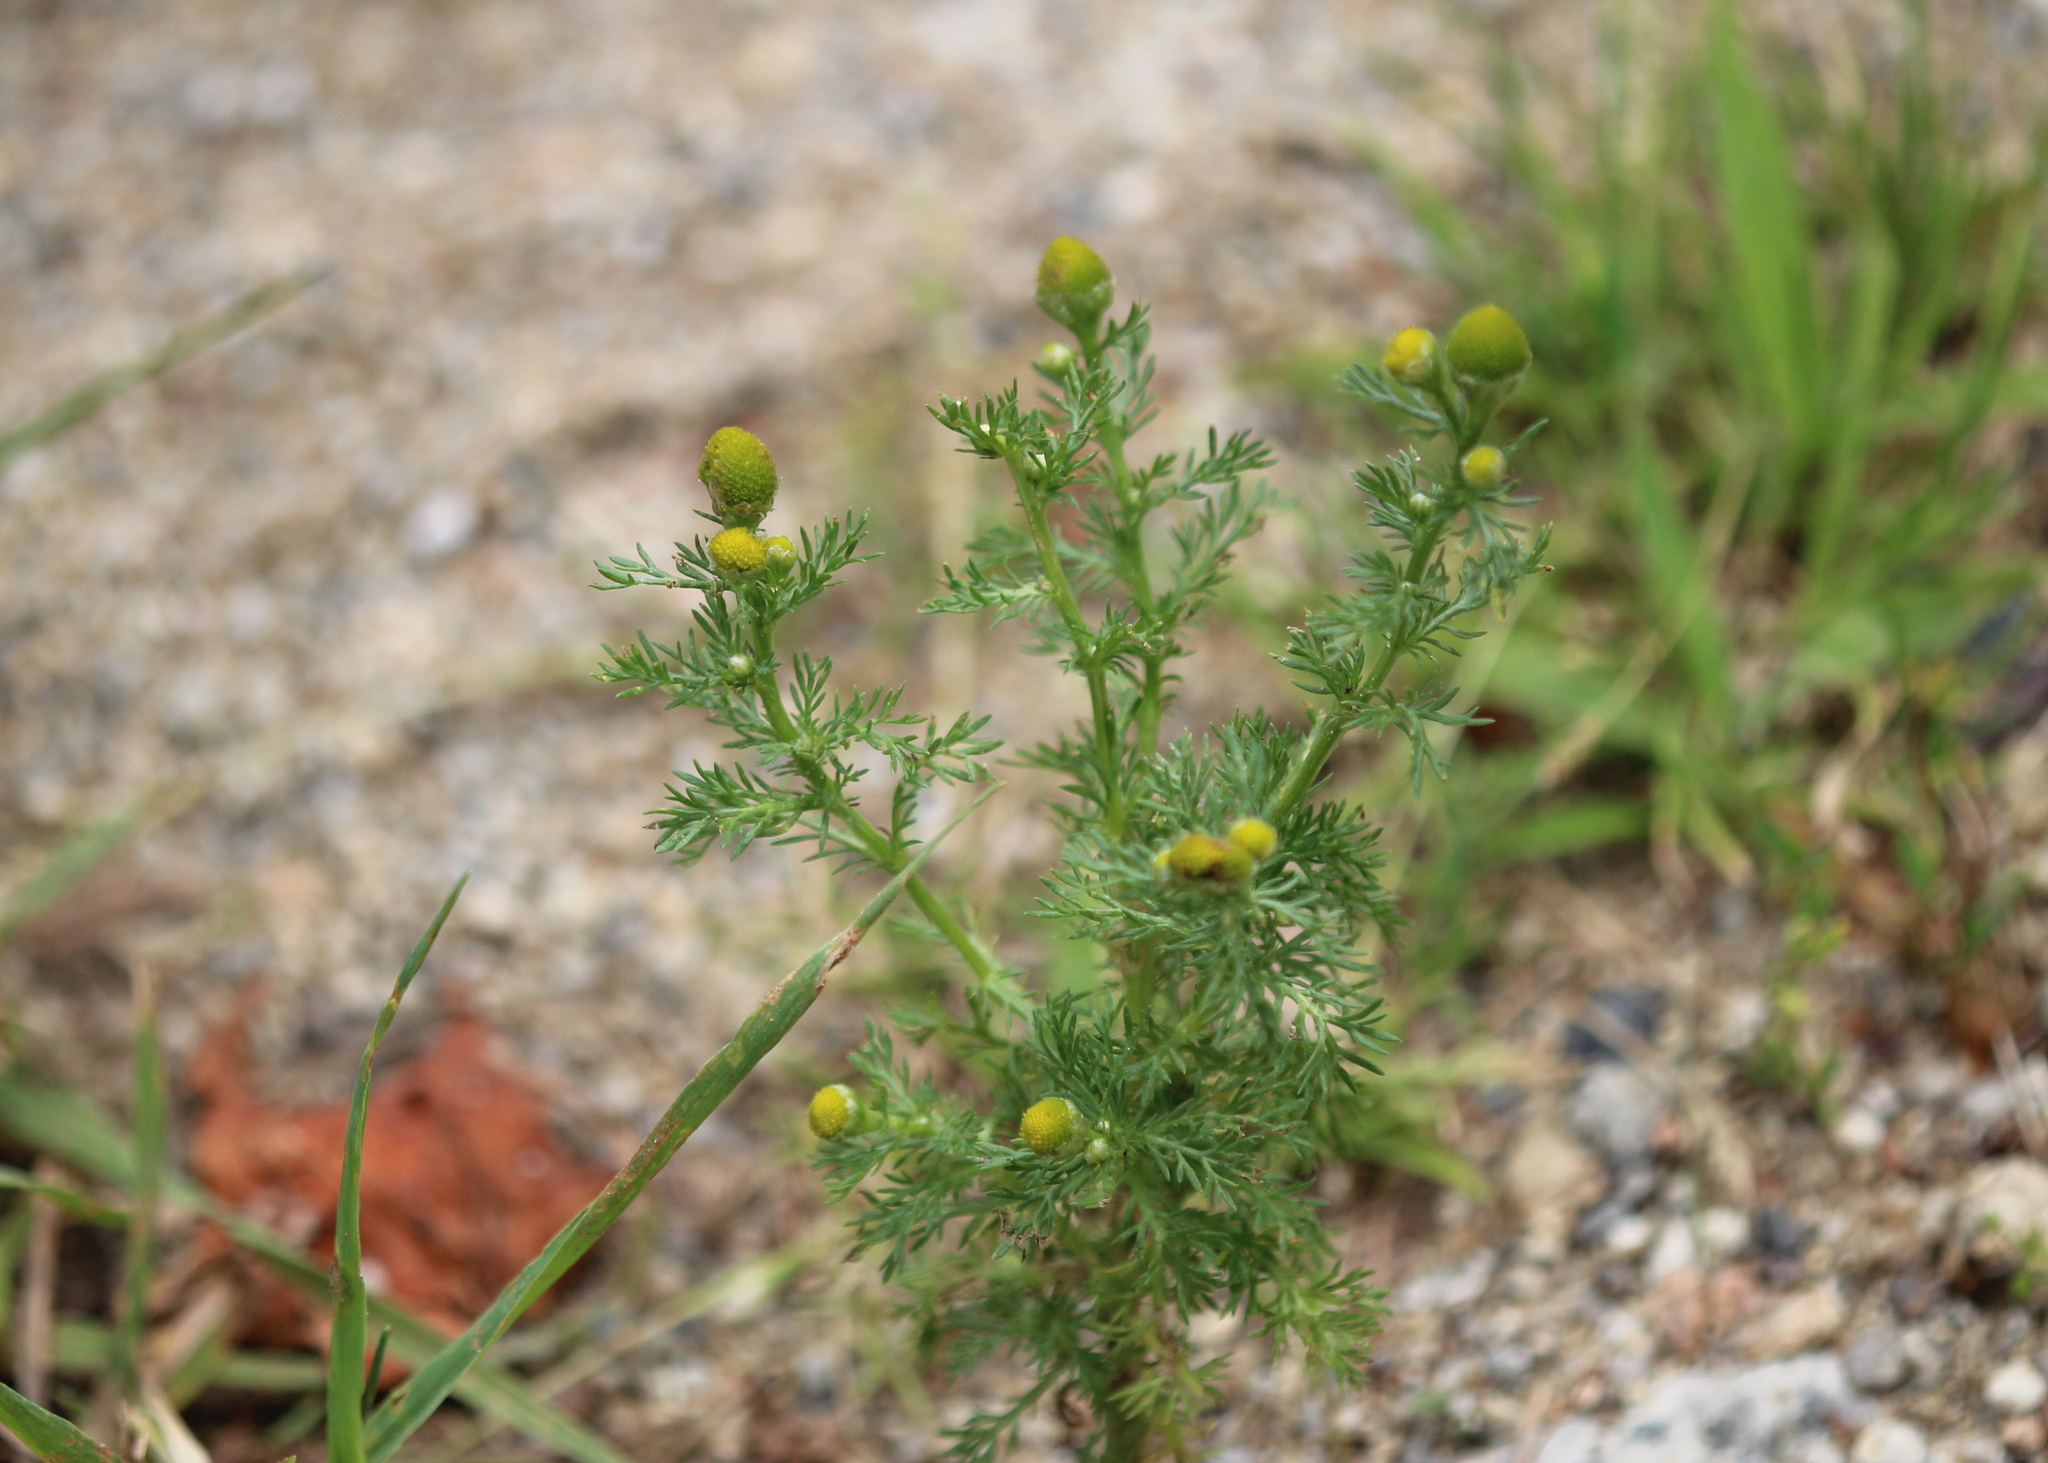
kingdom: Plantae
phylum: Tracheophyta
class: Magnoliopsida
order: Asterales
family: Asteraceae
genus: Matricaria
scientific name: Matricaria discoidea
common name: Disc mayweed
